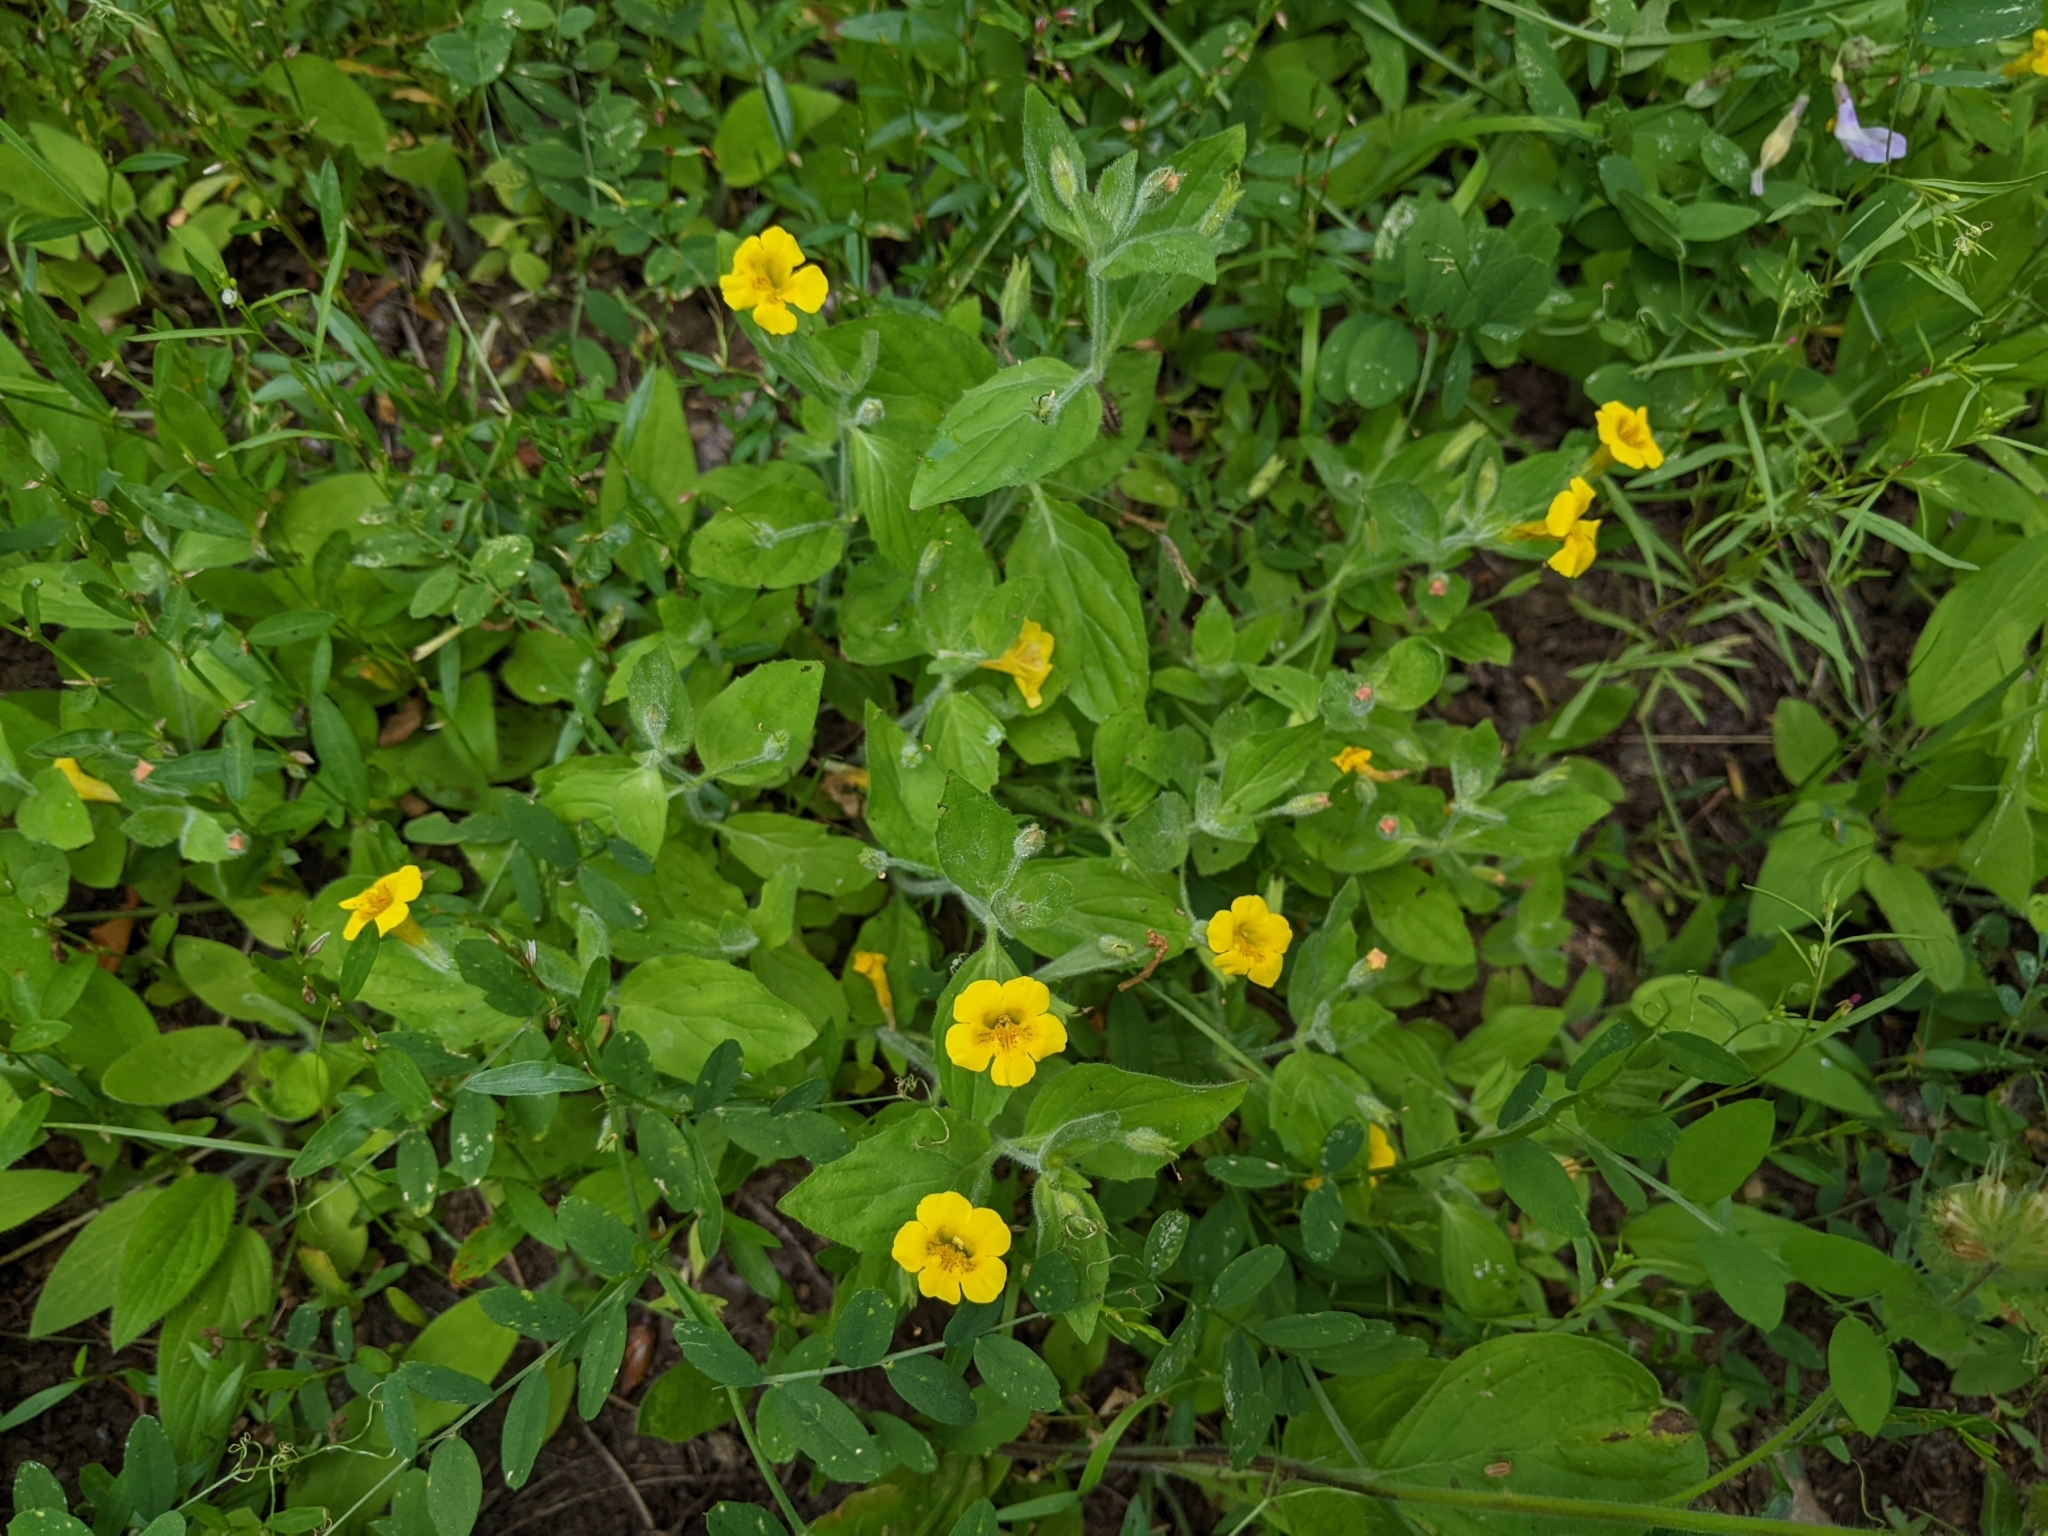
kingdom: Plantae
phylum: Tracheophyta
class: Magnoliopsida
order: Lamiales
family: Phrymaceae
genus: Erythranthe
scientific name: Erythranthe moschata
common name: Muskflower
